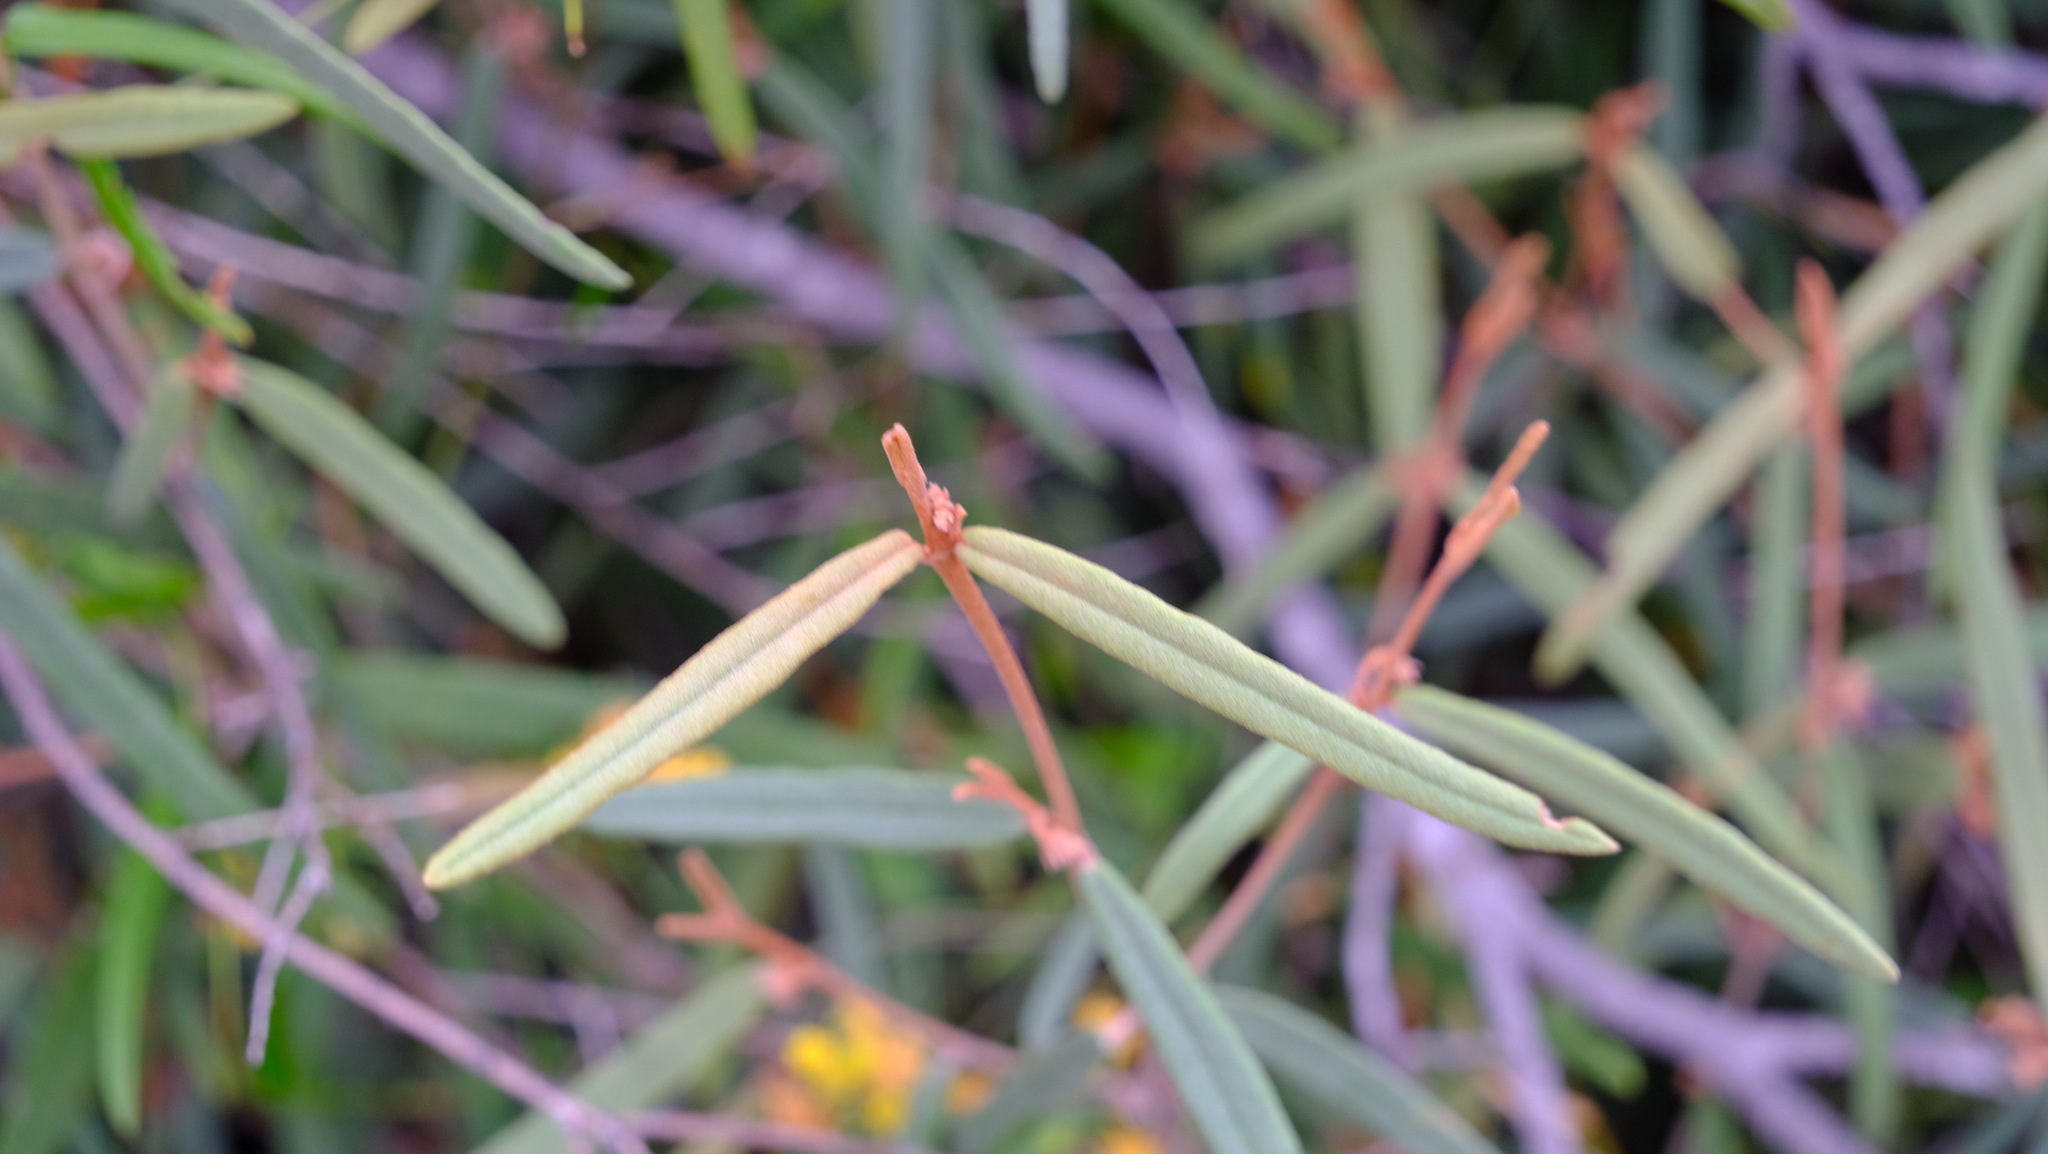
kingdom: Plantae
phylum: Tracheophyta
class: Magnoliopsida
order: Malvales
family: Malvaceae
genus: Lasiopetalum
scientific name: Lasiopetalum oppositifolium
